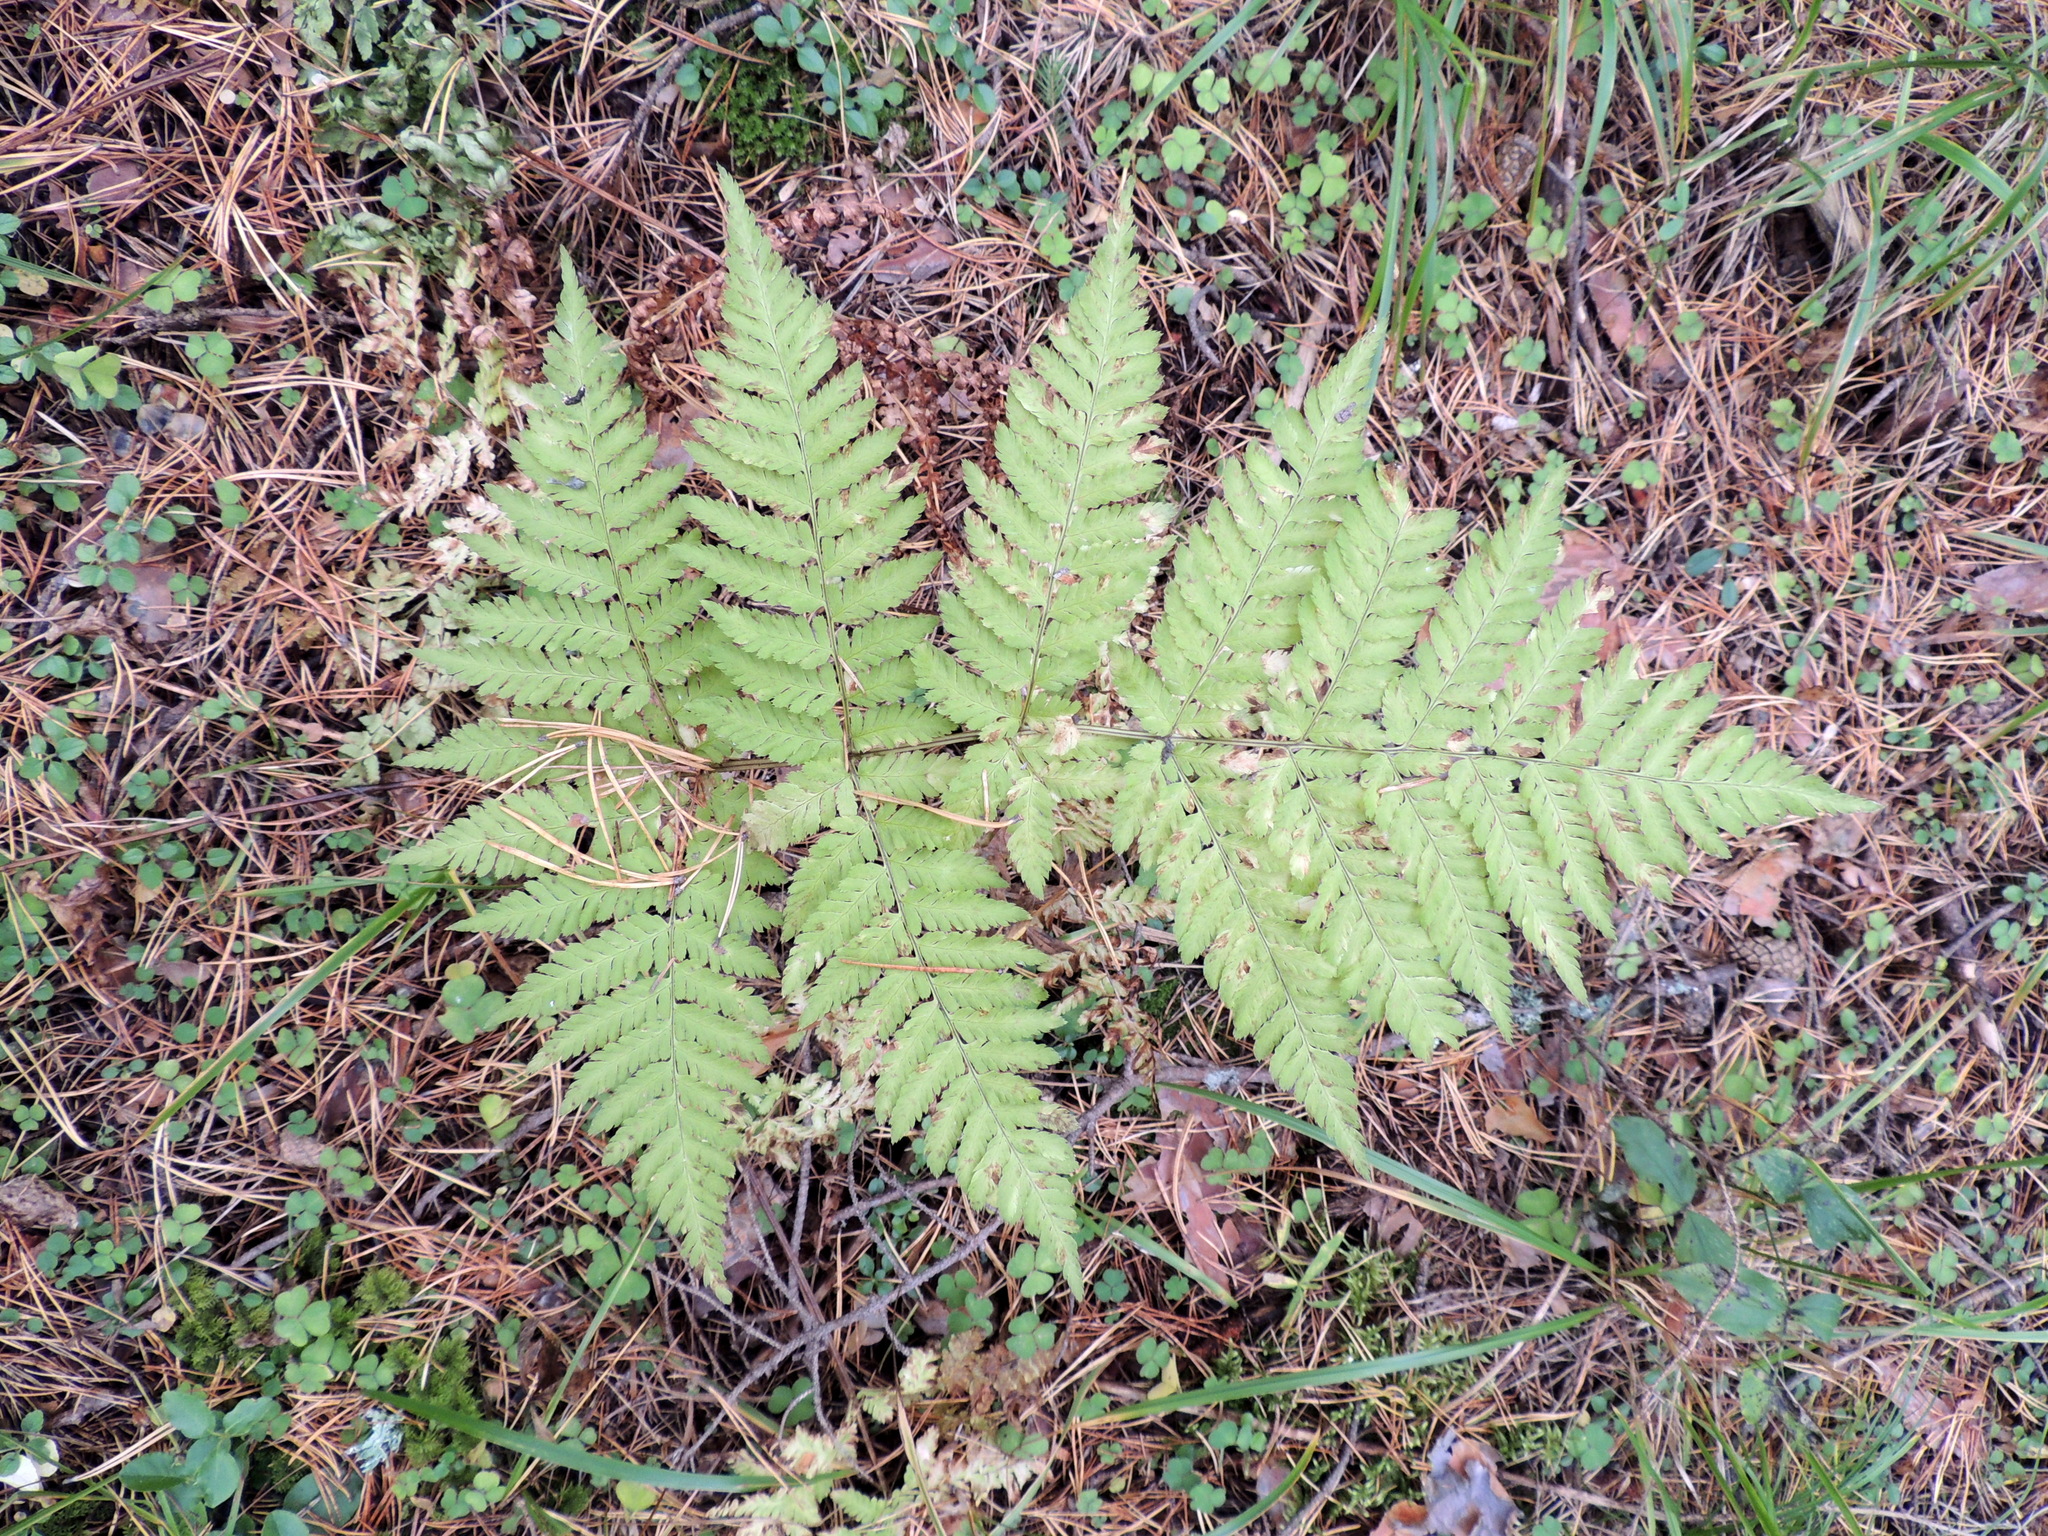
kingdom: Plantae
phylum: Tracheophyta
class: Polypodiopsida
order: Polypodiales
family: Dryopteridaceae
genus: Dryopteris
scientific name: Dryopteris carthusiana
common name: Narrow buckler-fern
